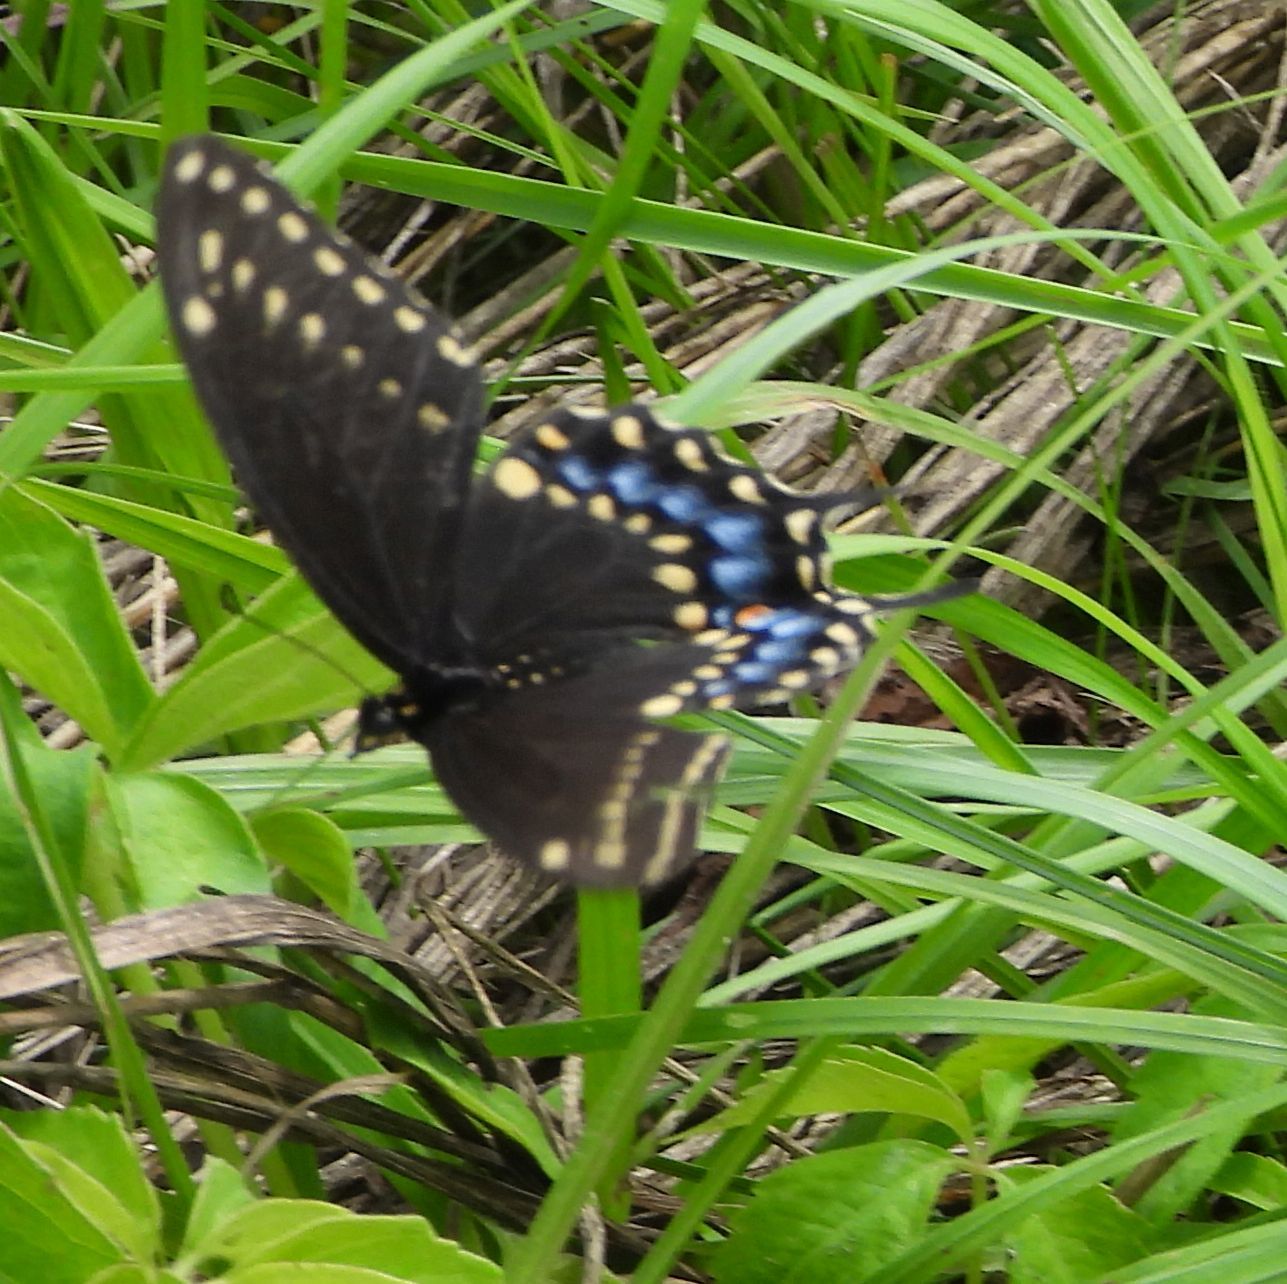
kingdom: Animalia
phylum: Arthropoda
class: Insecta
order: Lepidoptera
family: Papilionidae
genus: Papilio
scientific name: Papilio polyxenes
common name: Black swallowtail
